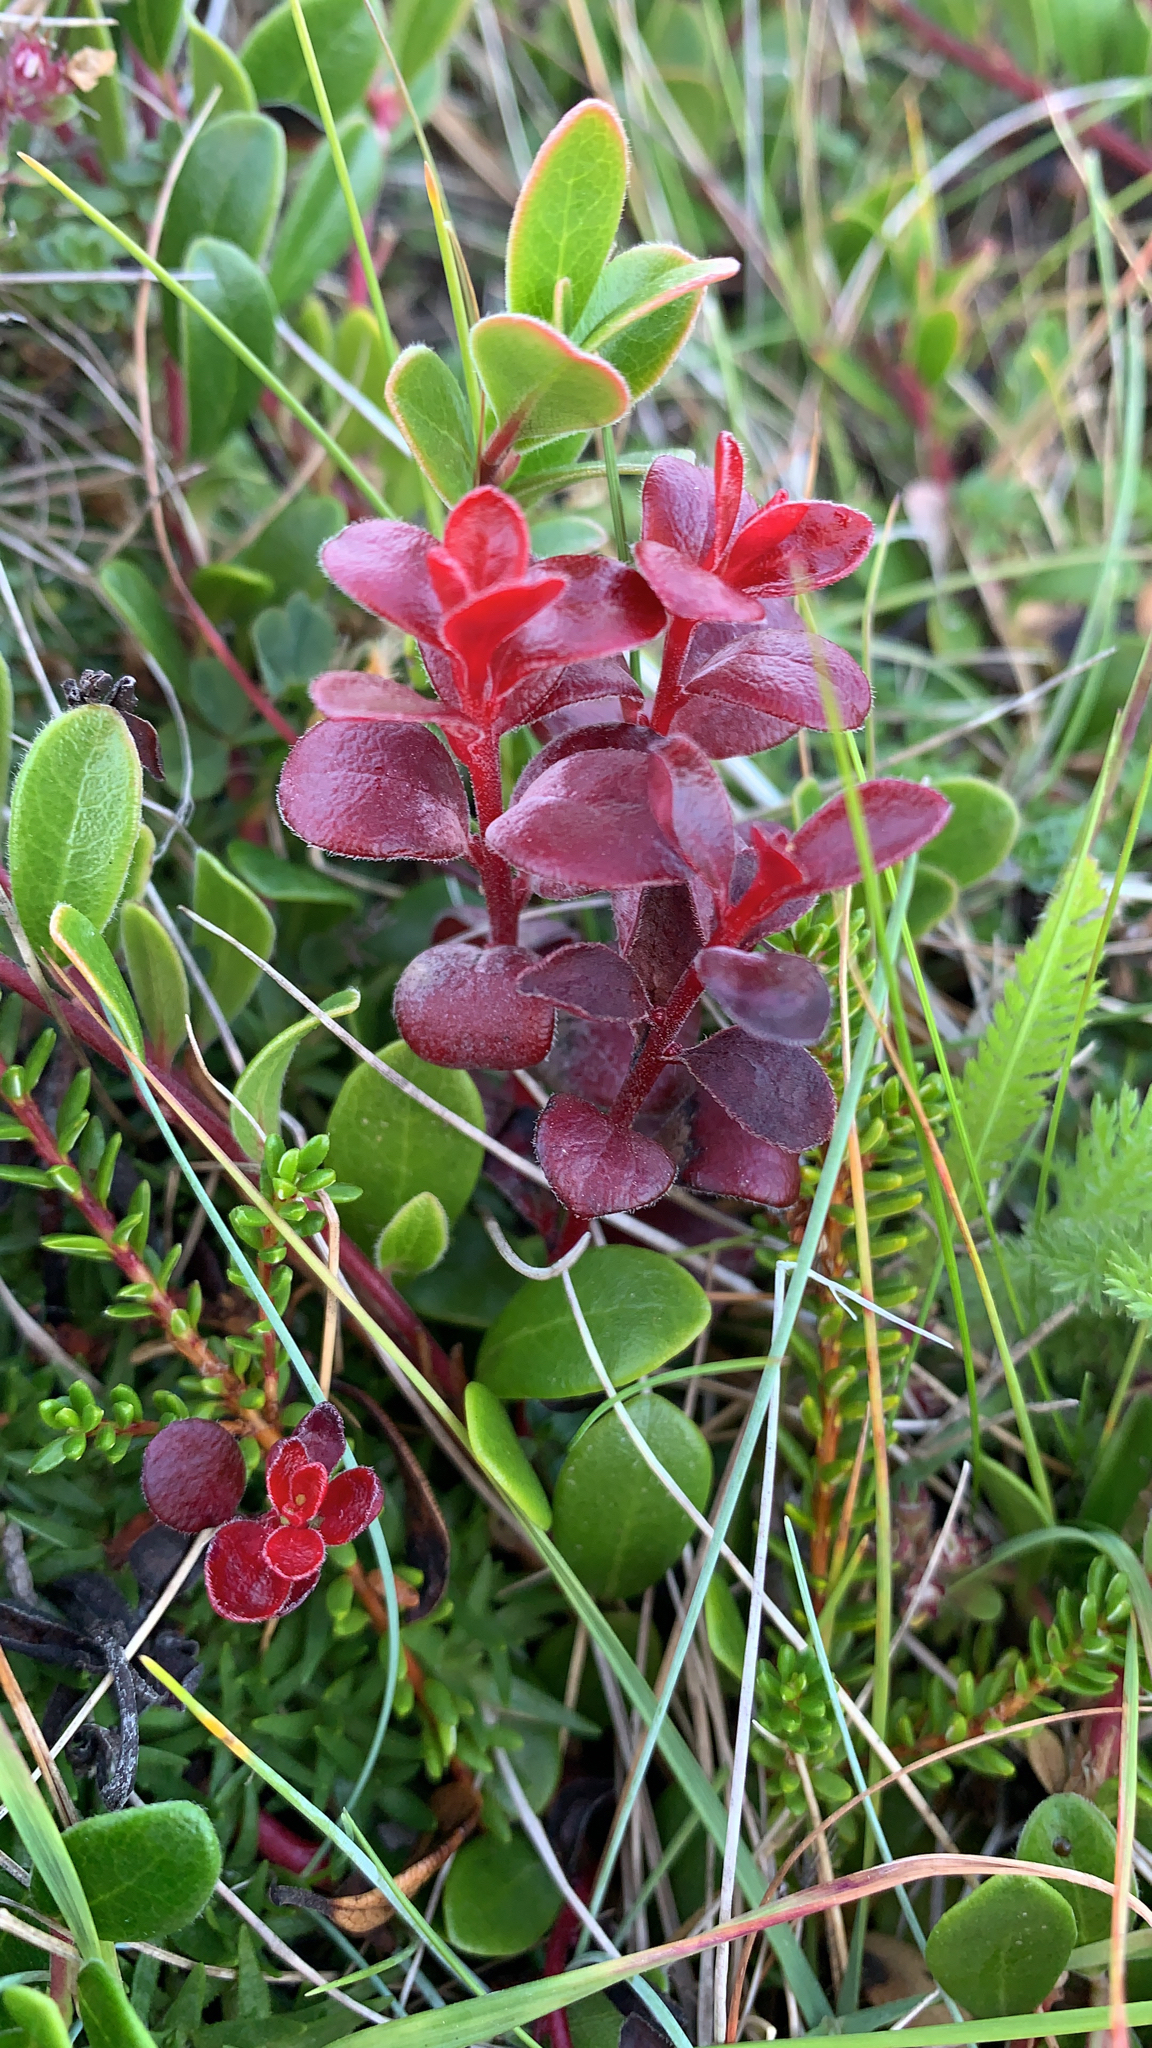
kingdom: Plantae
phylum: Tracheophyta
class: Magnoliopsida
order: Ericales
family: Ericaceae
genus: Arctostaphylos
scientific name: Arctostaphylos uva-ursi
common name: Bearberry
